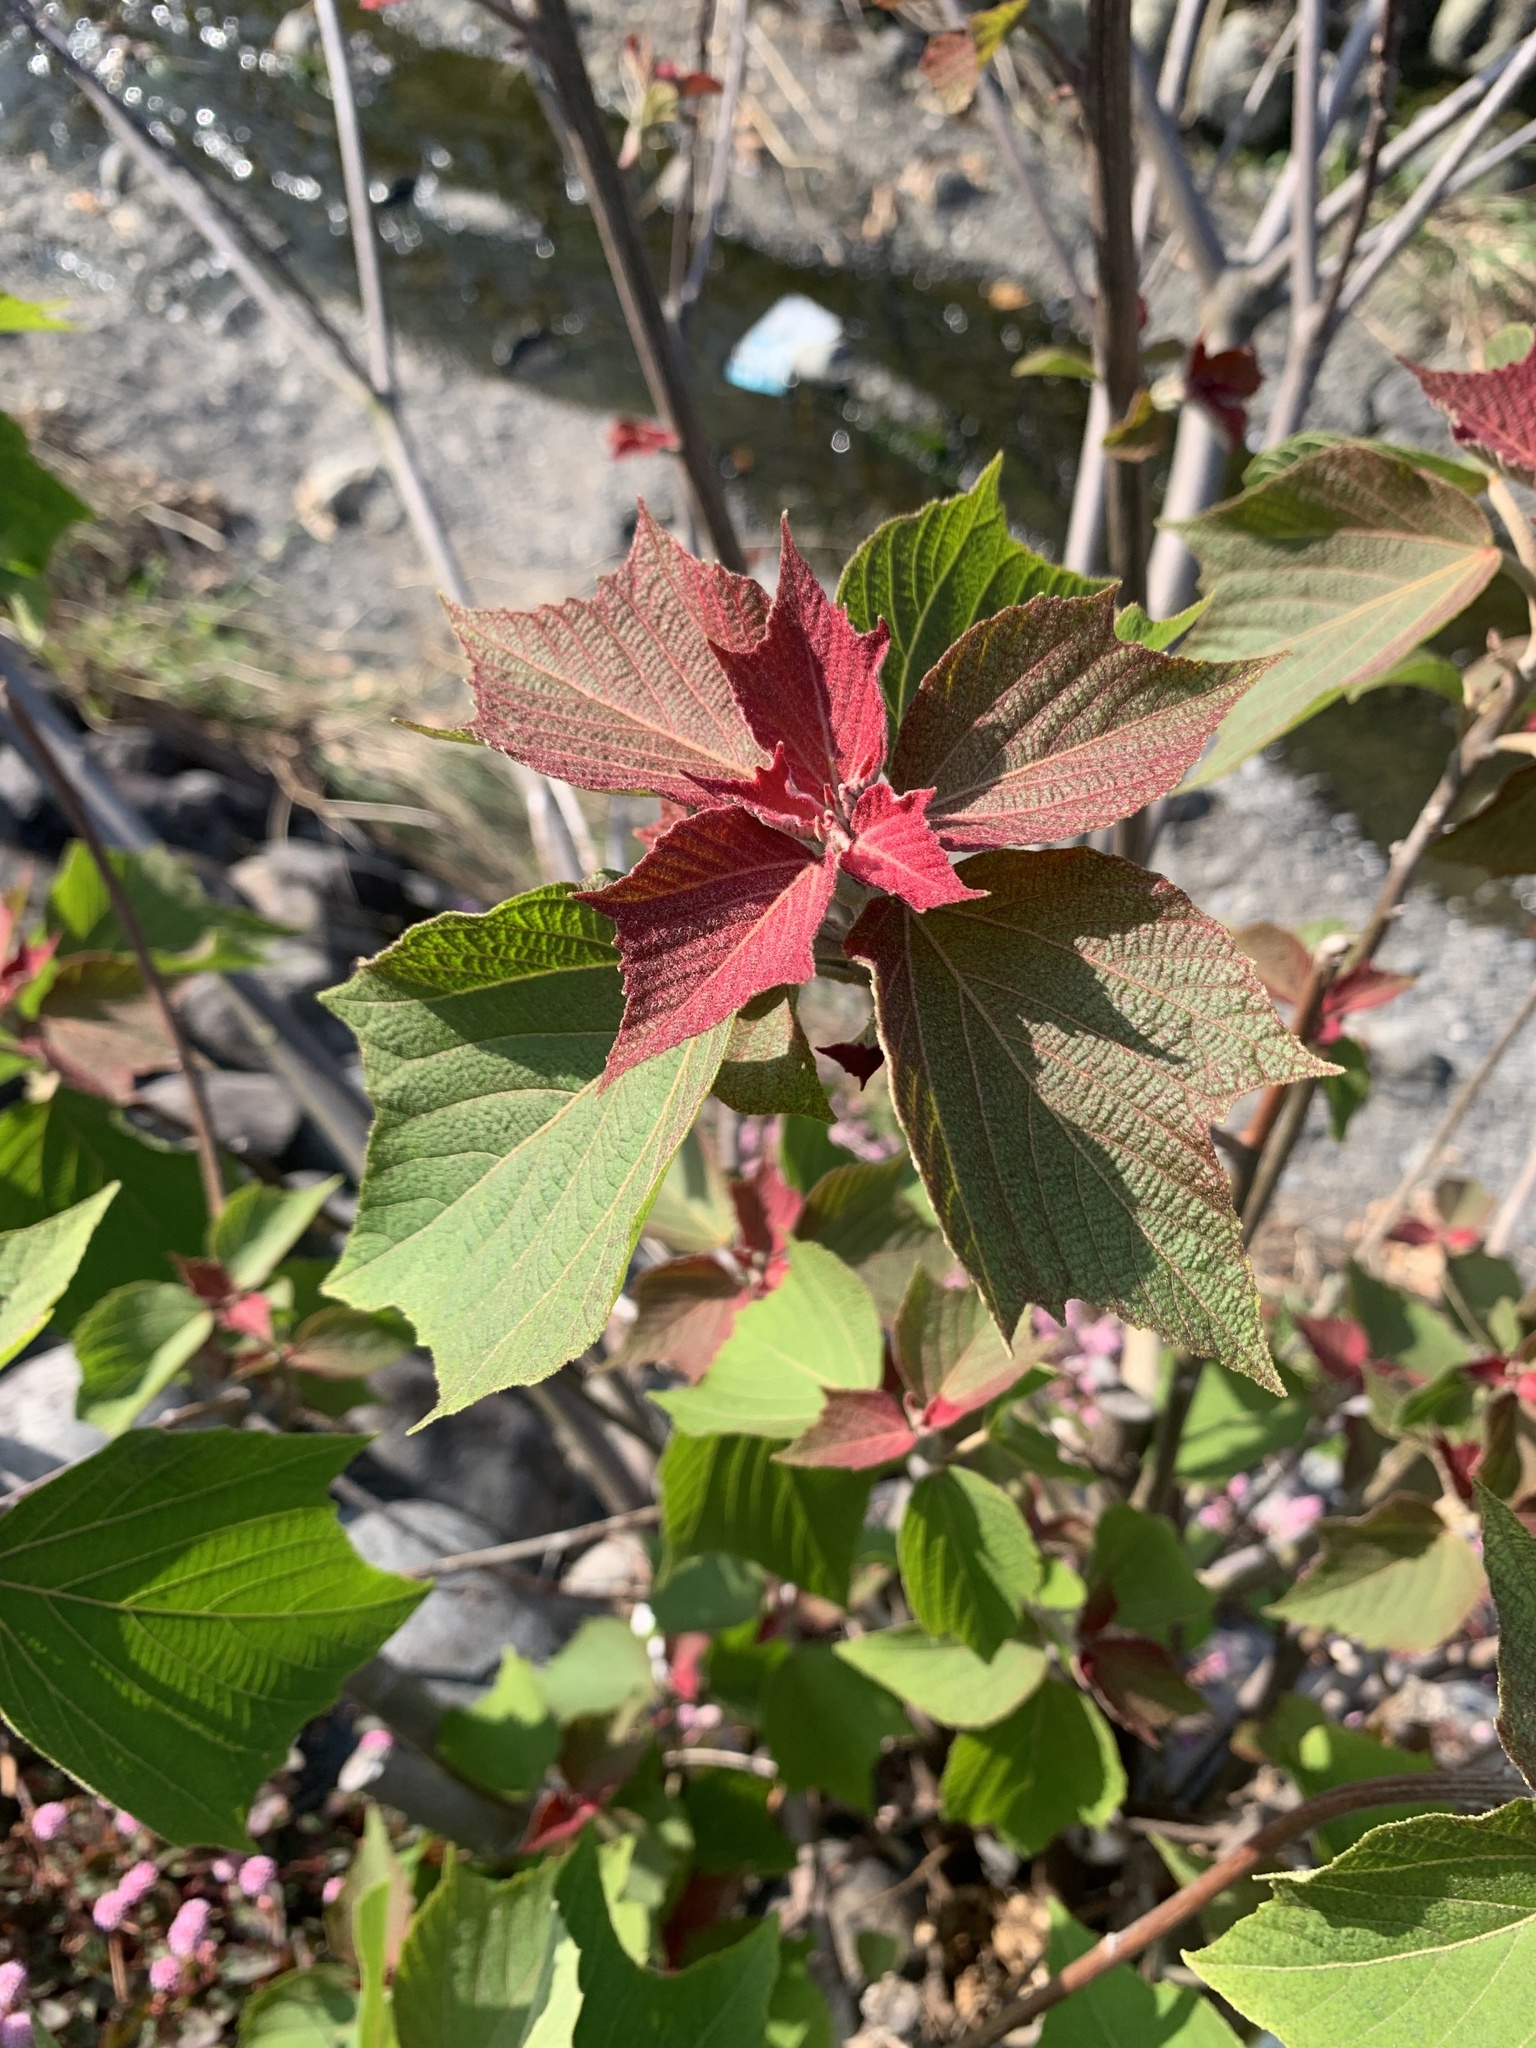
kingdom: Plantae
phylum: Tracheophyta
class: Magnoliopsida
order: Malpighiales
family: Euphorbiaceae
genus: Mallotus
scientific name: Mallotus japonicus
